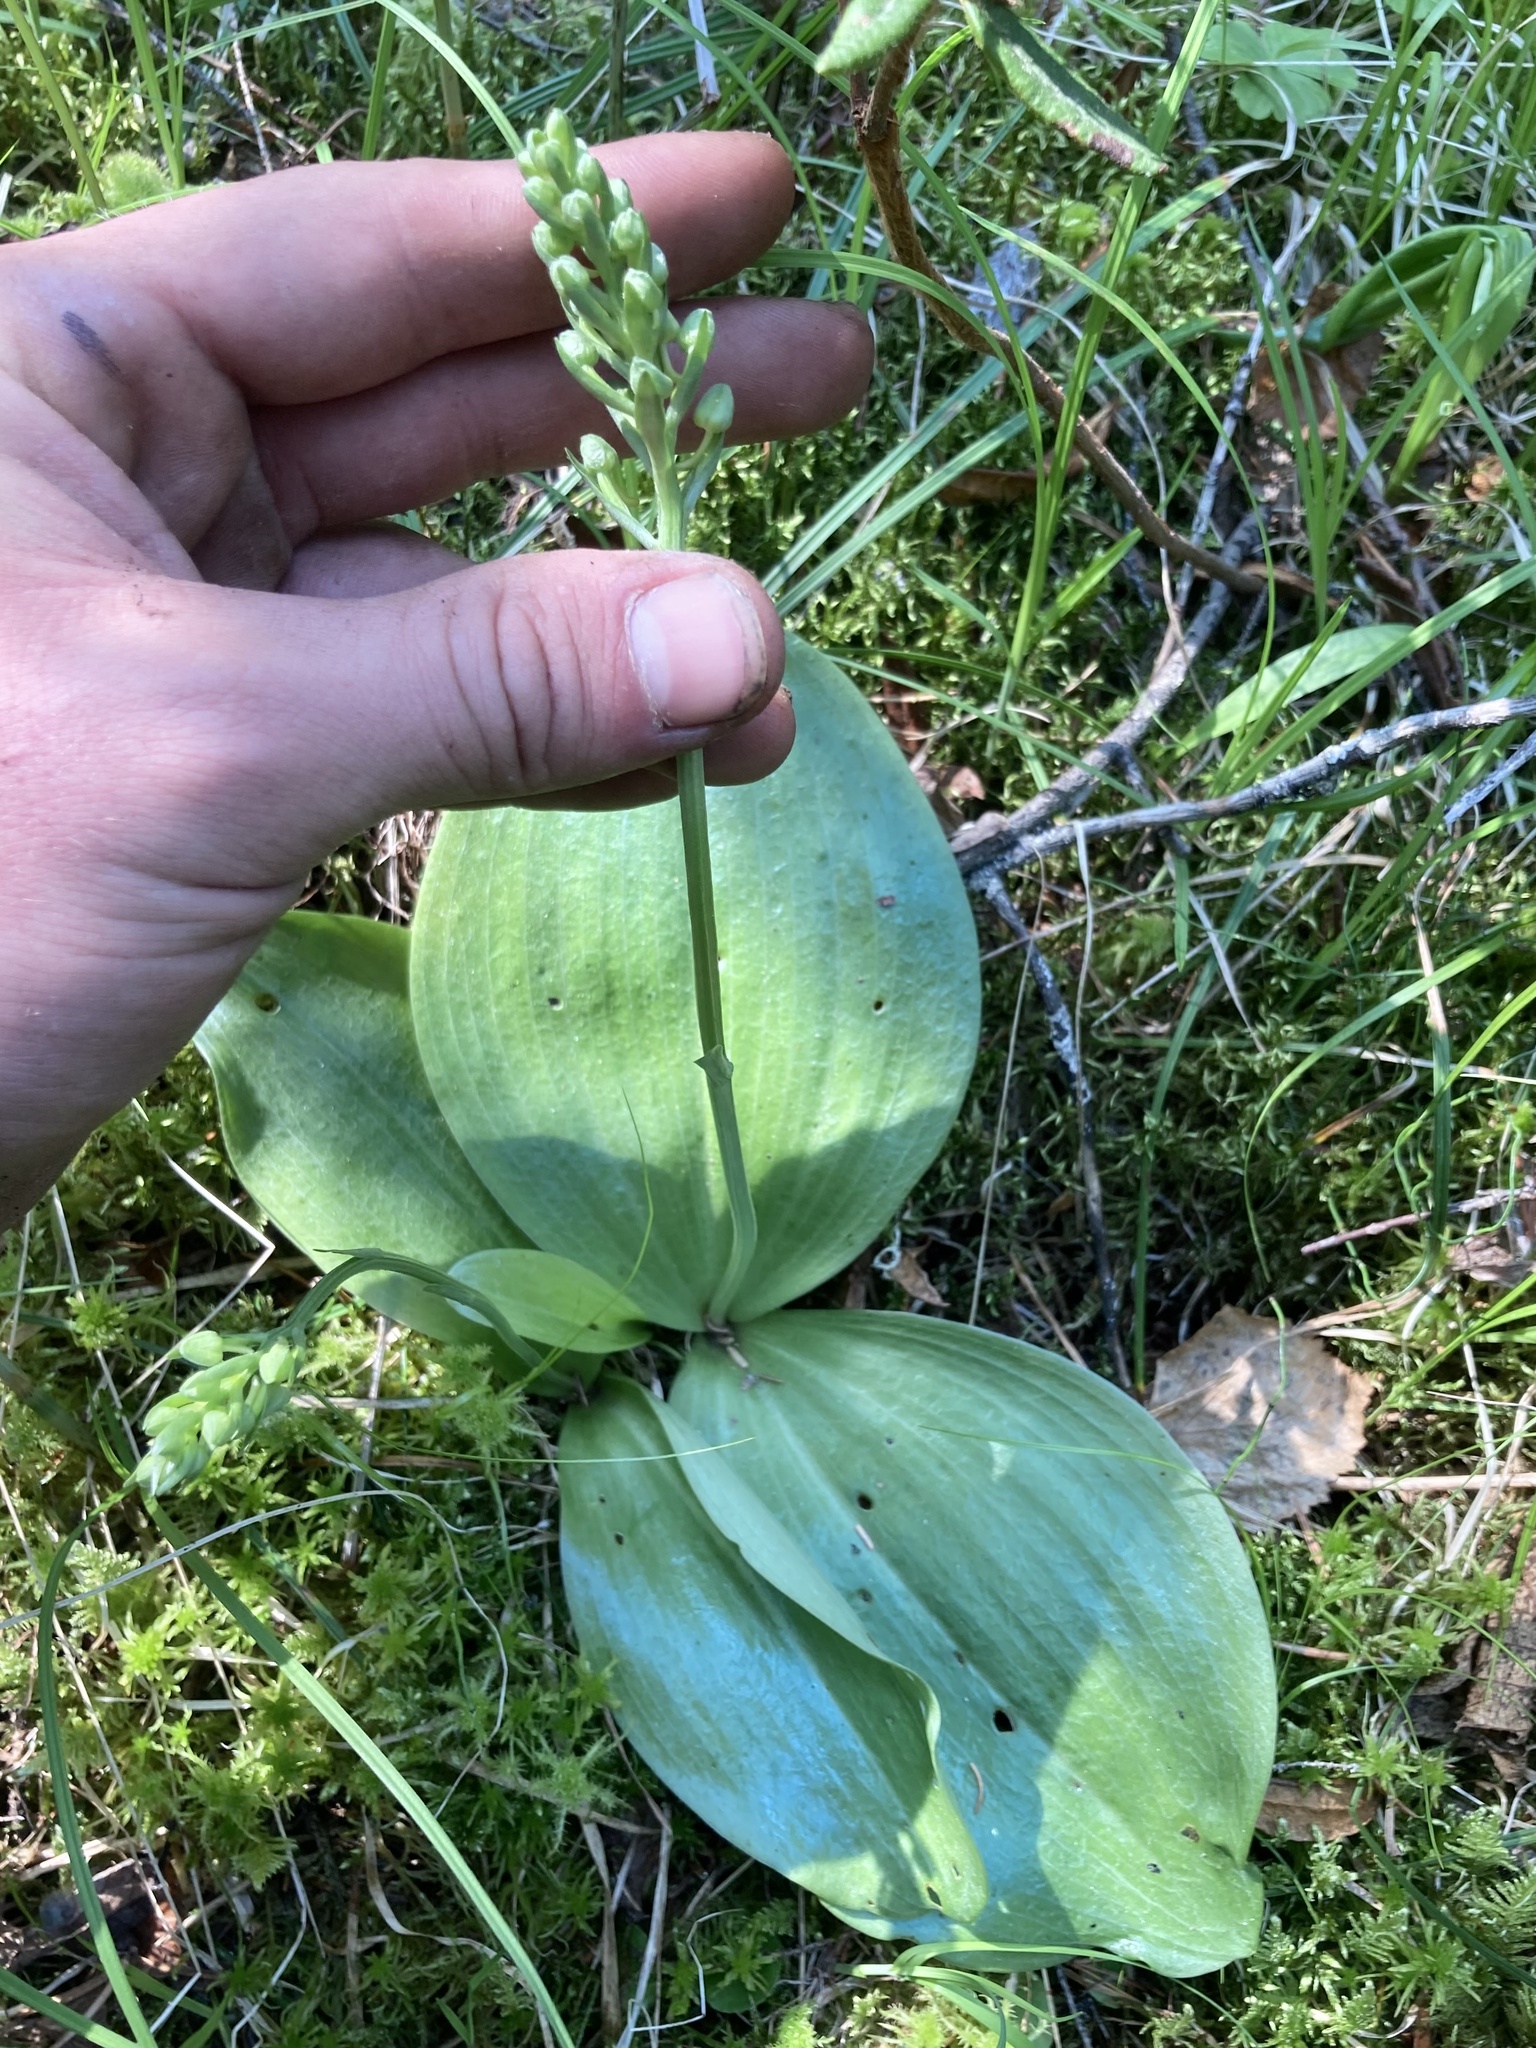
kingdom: Plantae
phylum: Tracheophyta
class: Liliopsida
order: Asparagales
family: Orchidaceae
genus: Platanthera
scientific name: Platanthera orbiculata
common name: Large round-leaved orchid
